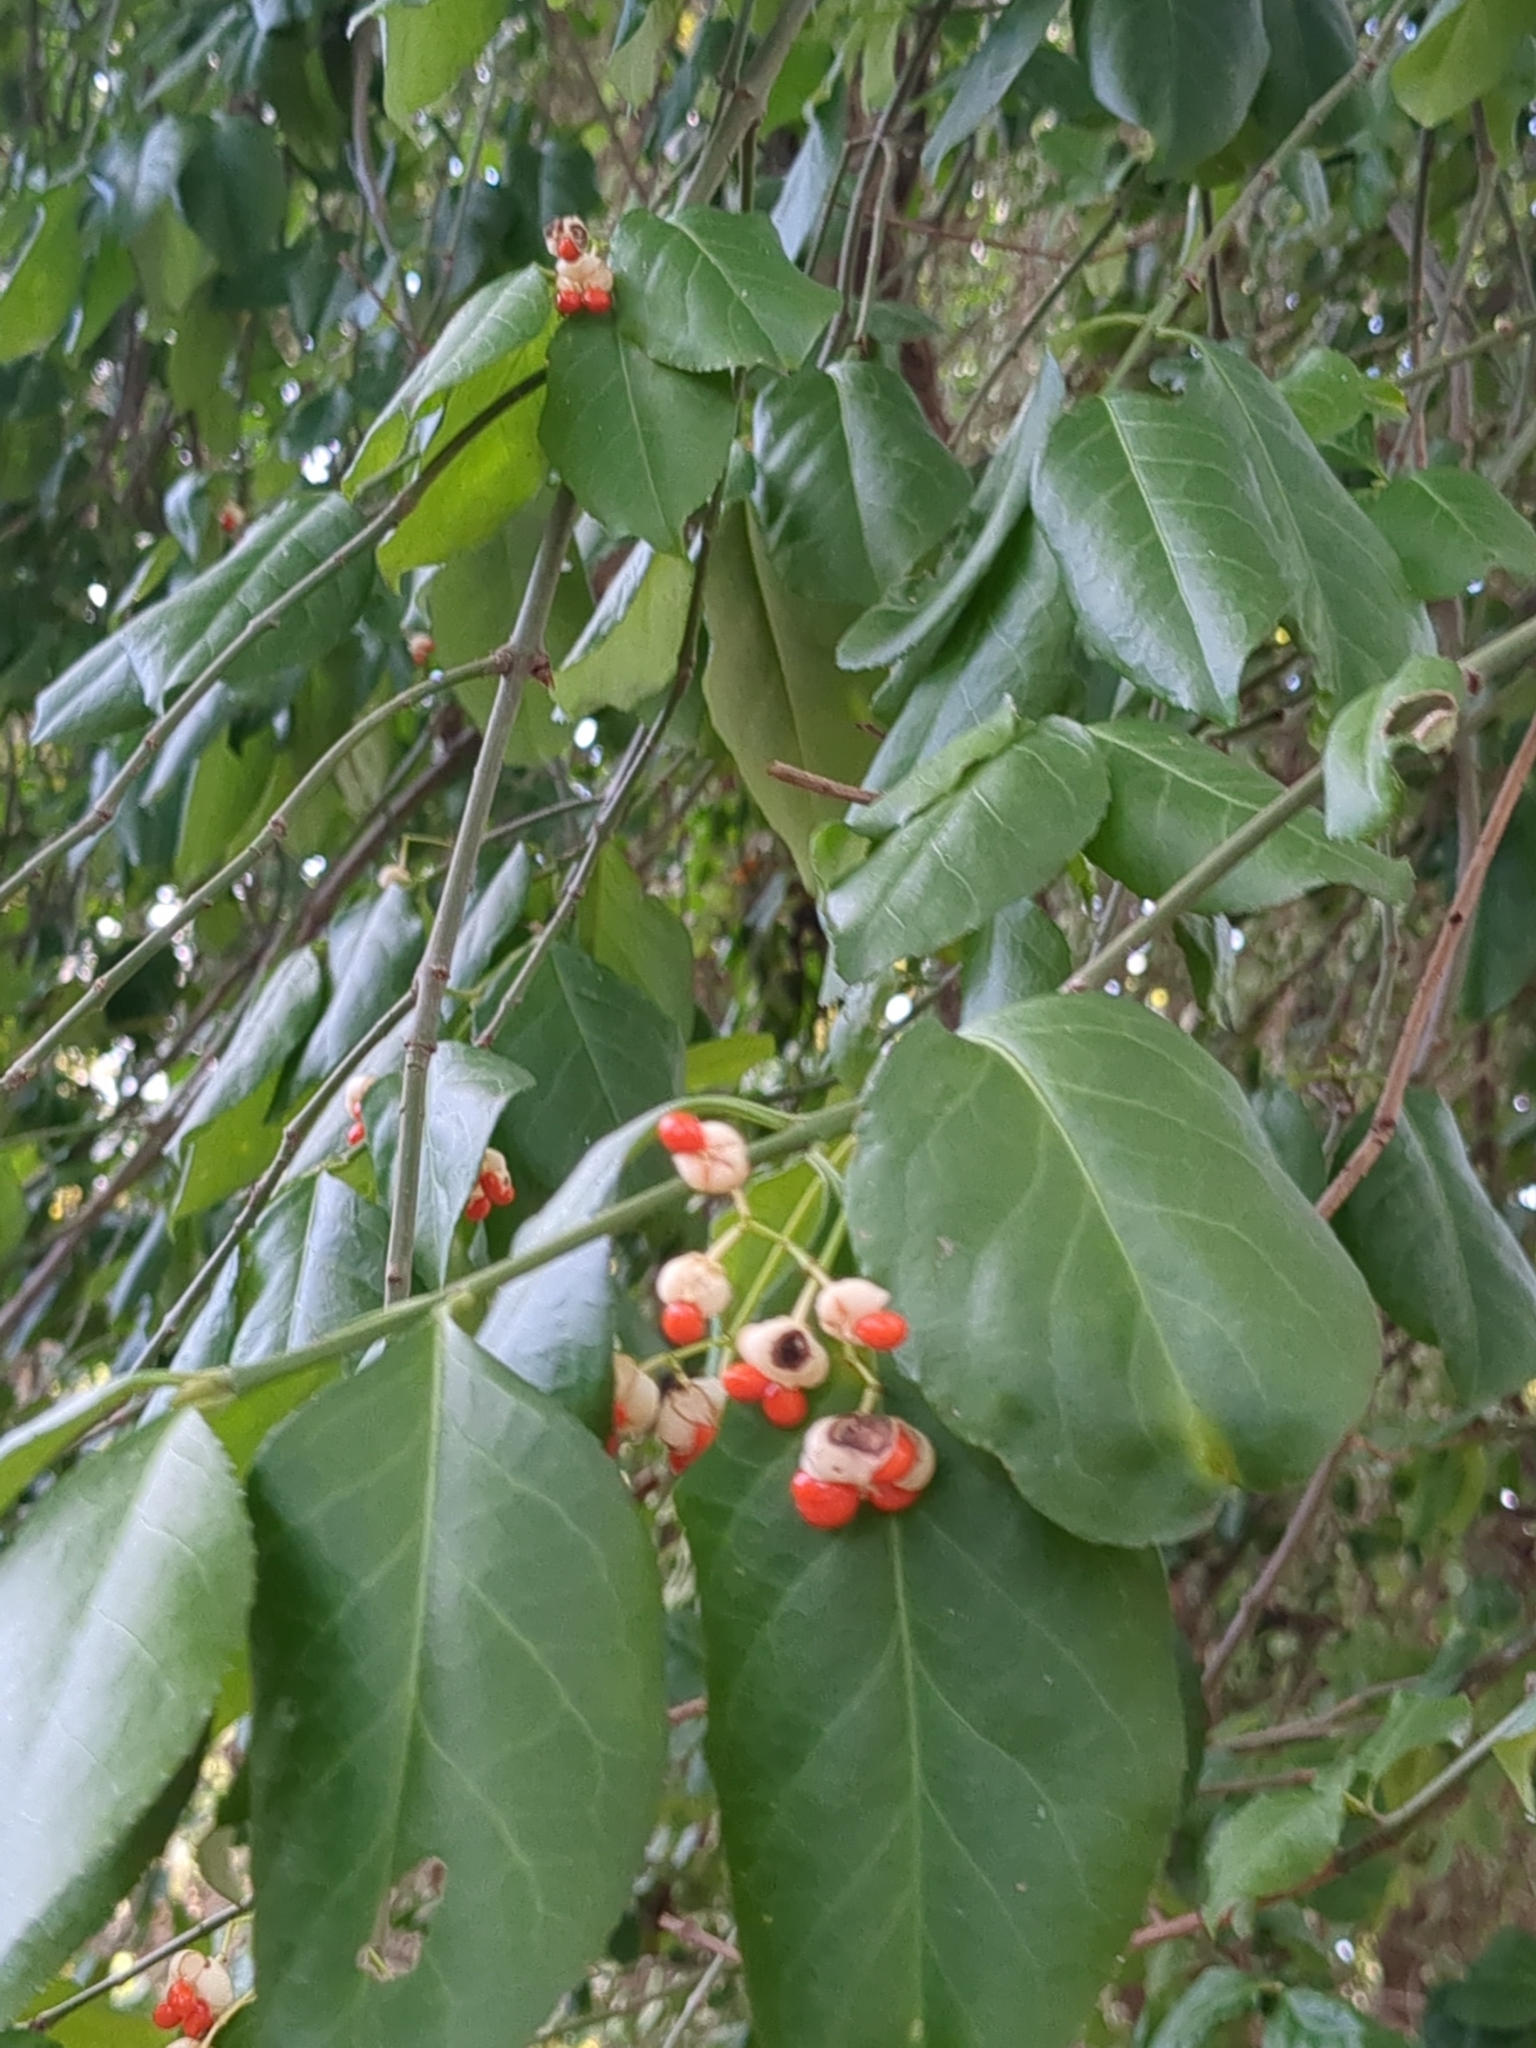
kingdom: Plantae
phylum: Tracheophyta
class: Magnoliopsida
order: Celastrales
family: Celastraceae
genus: Euonymus
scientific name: Euonymus fortunei
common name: Climbing euonymus
